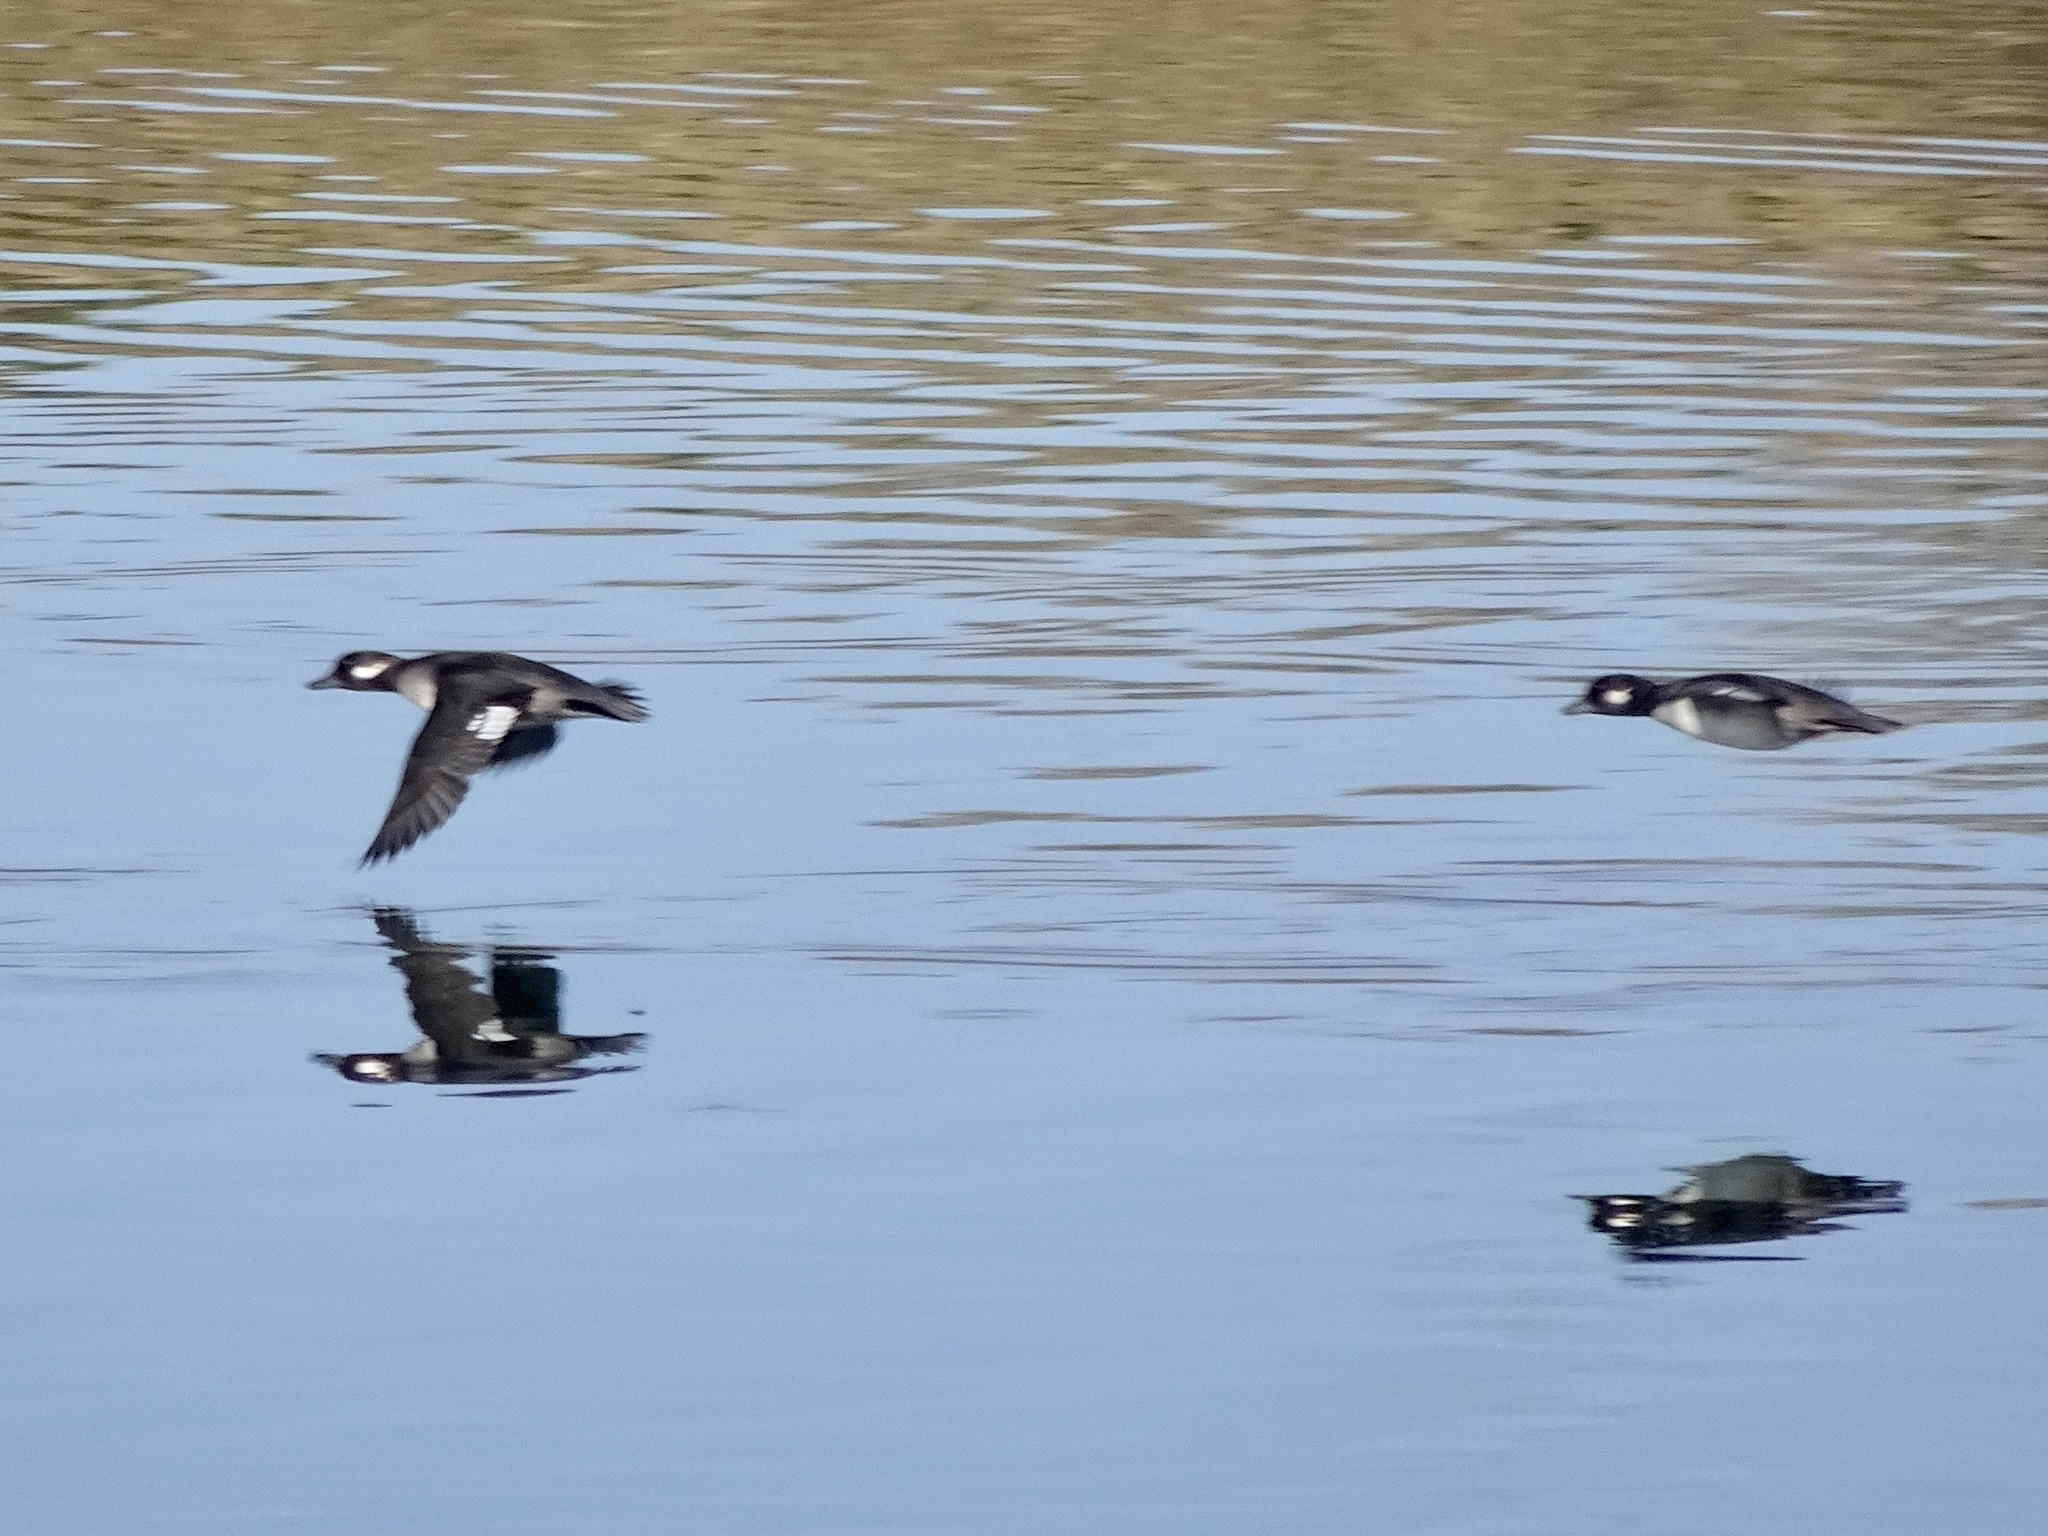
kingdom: Animalia
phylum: Chordata
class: Aves
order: Anseriformes
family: Anatidae
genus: Bucephala
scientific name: Bucephala albeola
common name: Bufflehead
